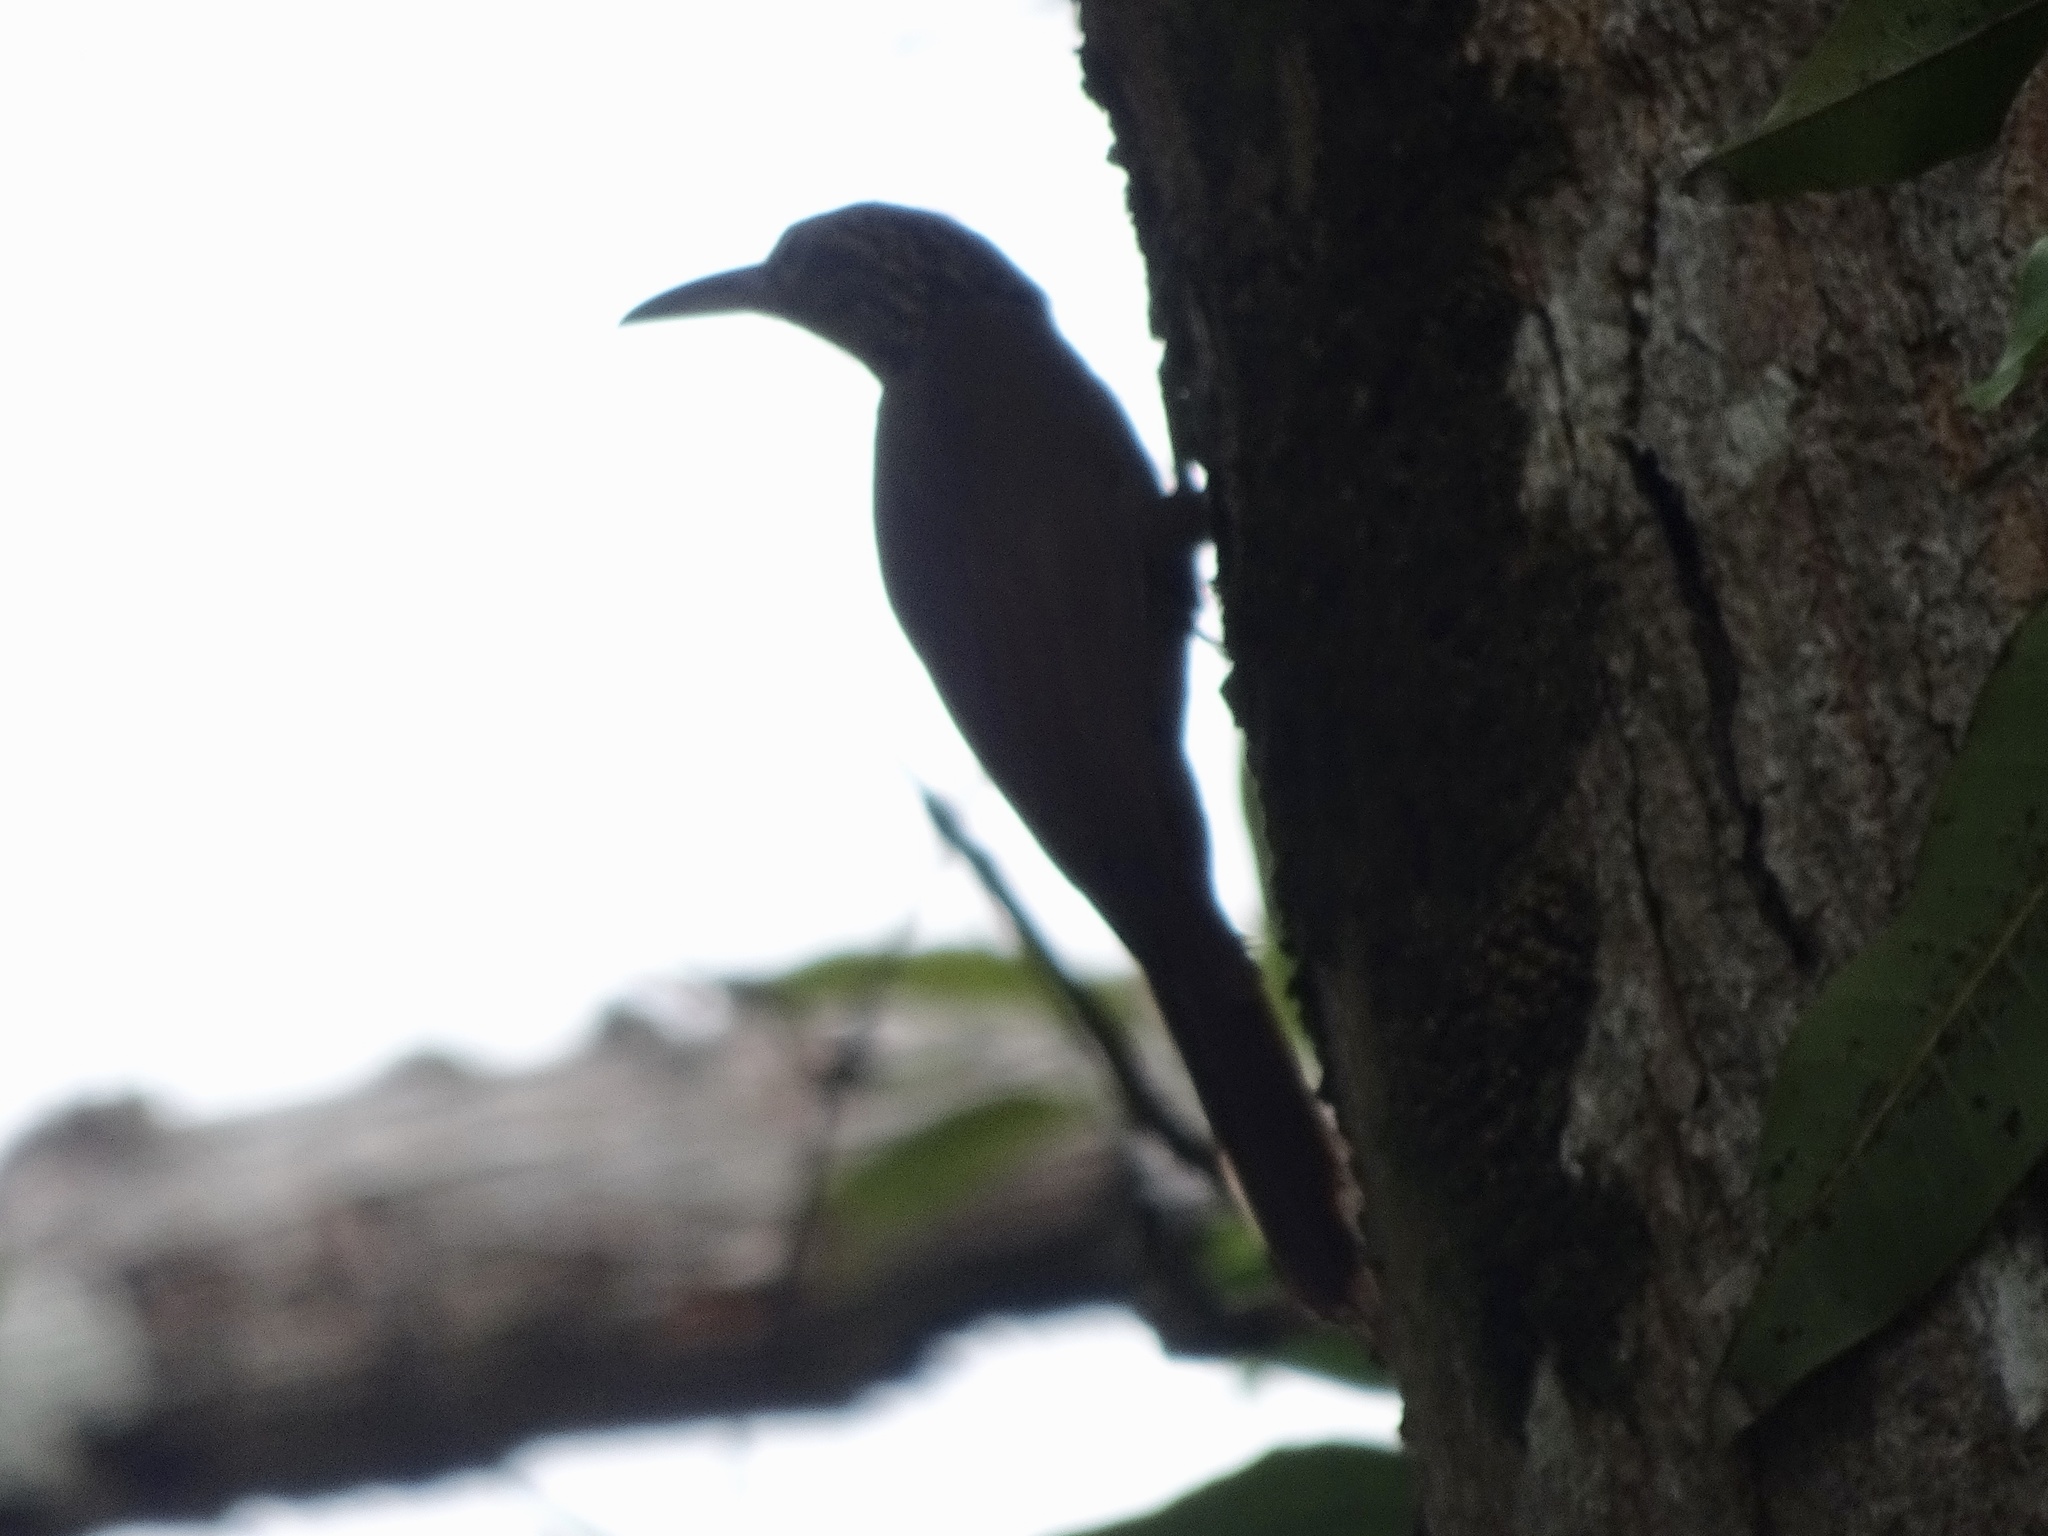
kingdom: Animalia
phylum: Chordata
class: Aves
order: Passeriformes
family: Furnariidae
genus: Xiphorhynchus
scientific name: Xiphorhynchus susurrans
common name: Cocoa woodcreeper
